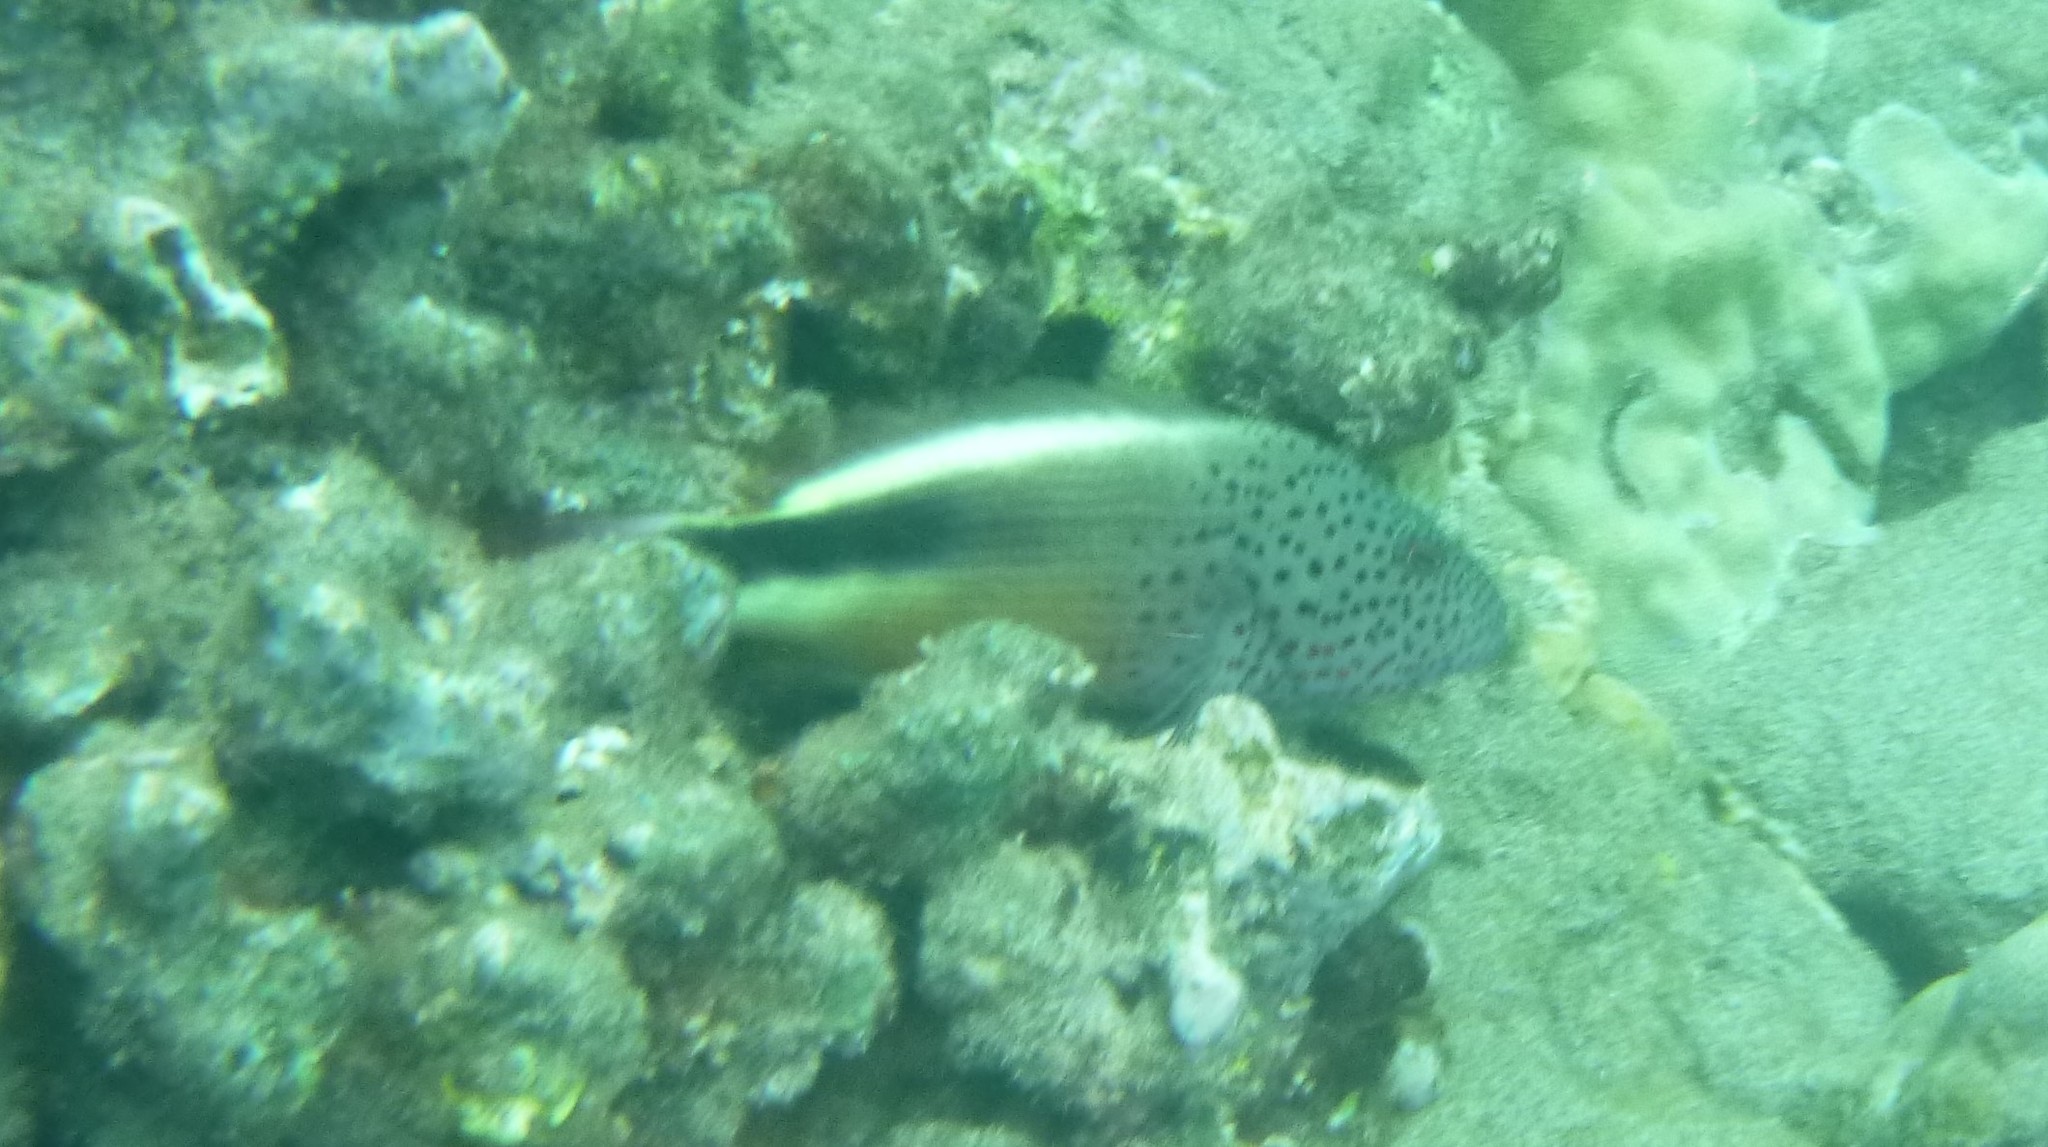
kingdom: Animalia
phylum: Chordata
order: Perciformes
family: Cirrhitidae
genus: Paracirrhites
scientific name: Paracirrhites forsteri
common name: Freckled hawkfish
